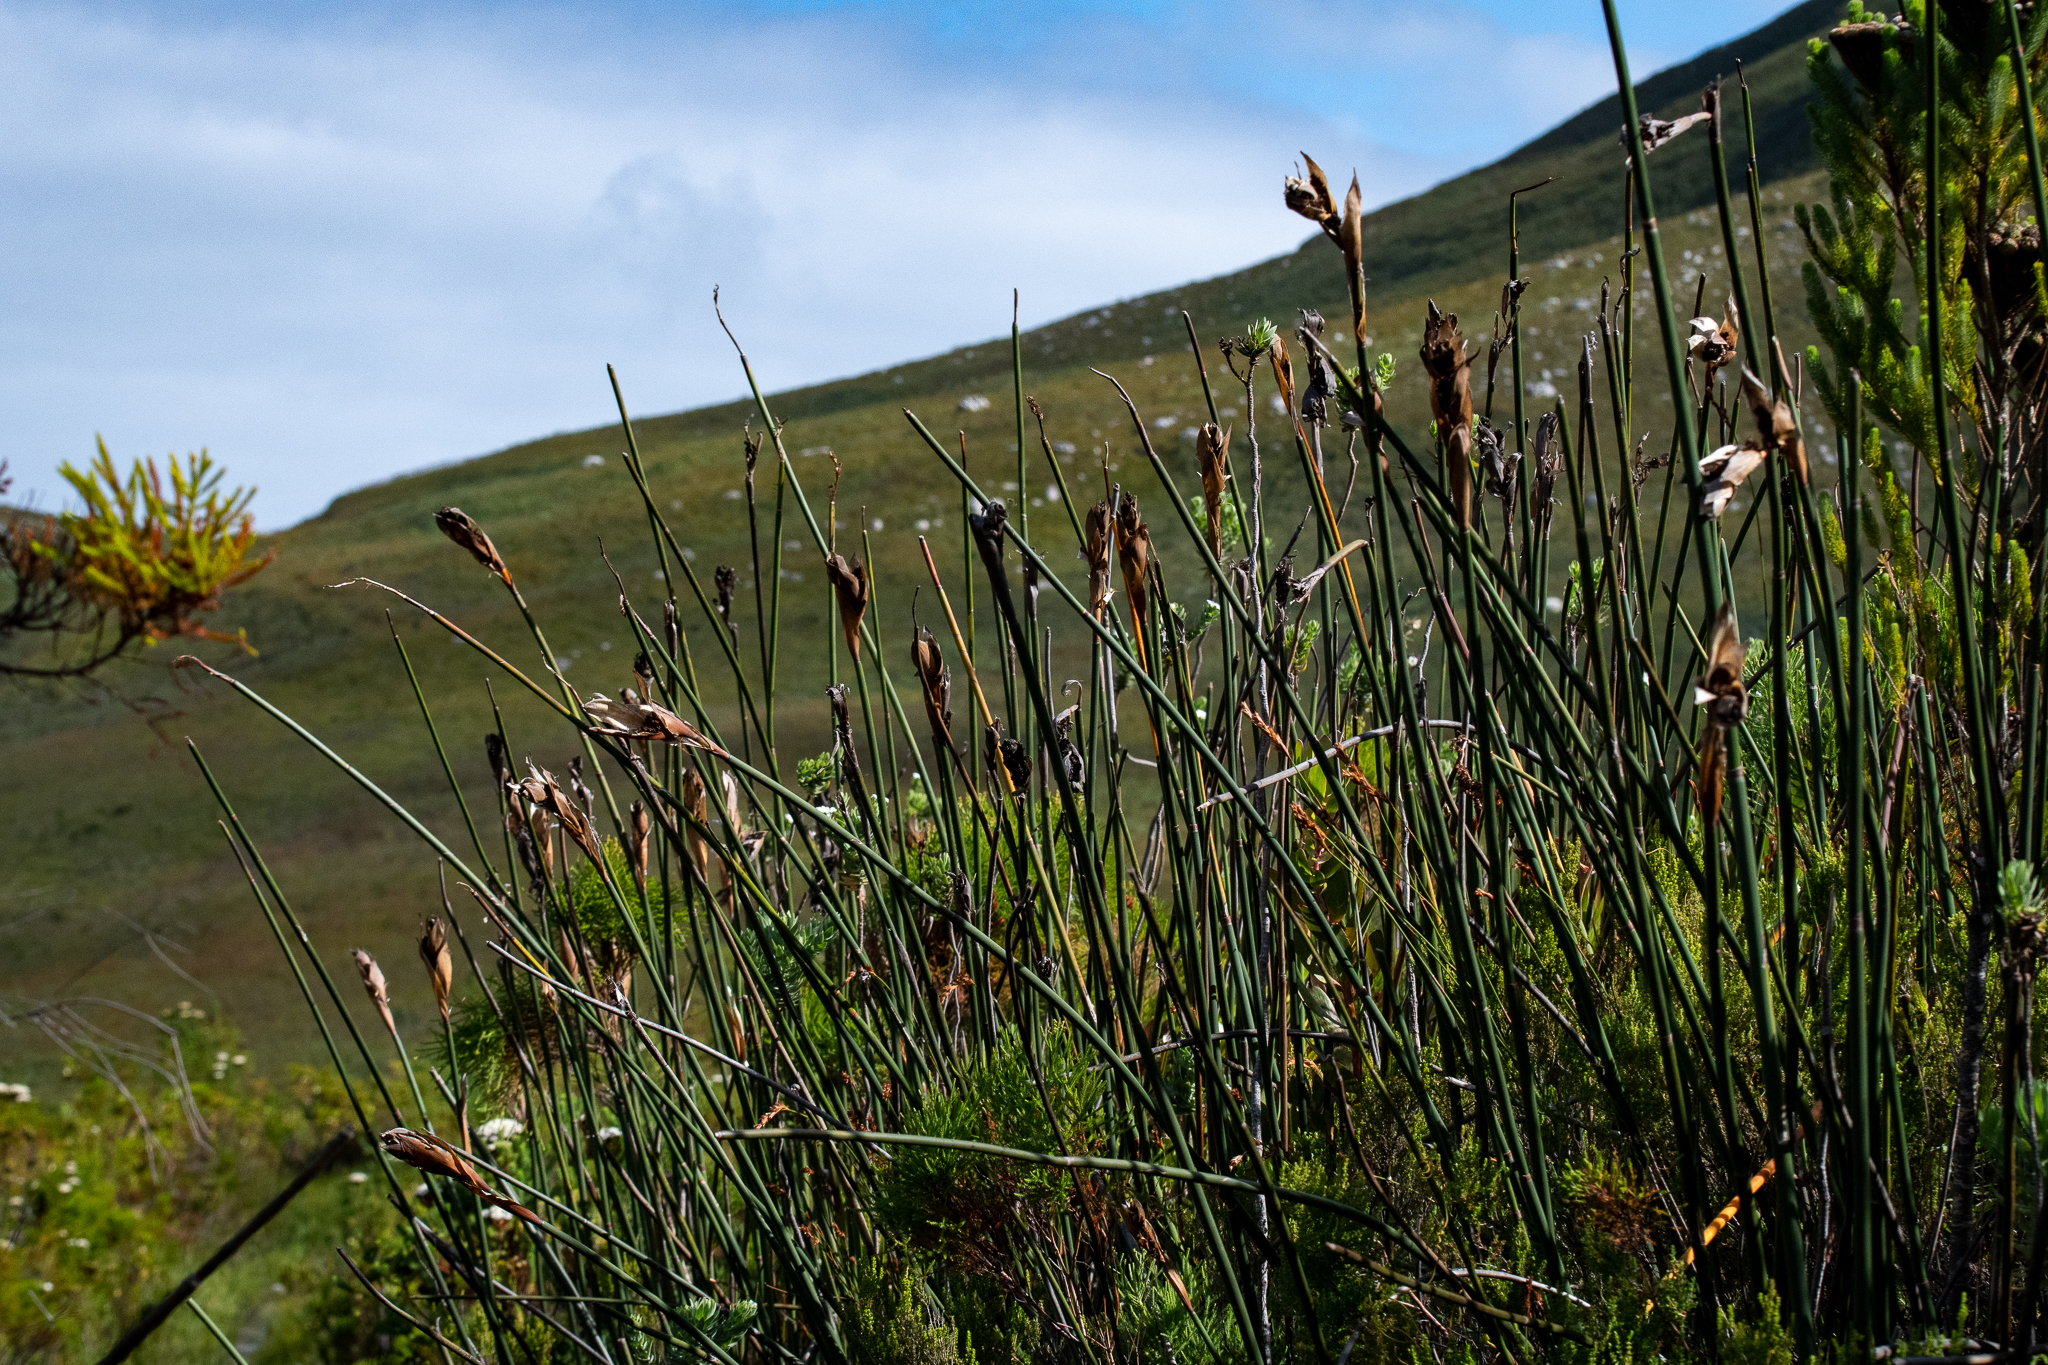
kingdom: Plantae
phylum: Tracheophyta
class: Liliopsida
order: Poales
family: Restionaceae
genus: Elegia
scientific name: Elegia mucronata
